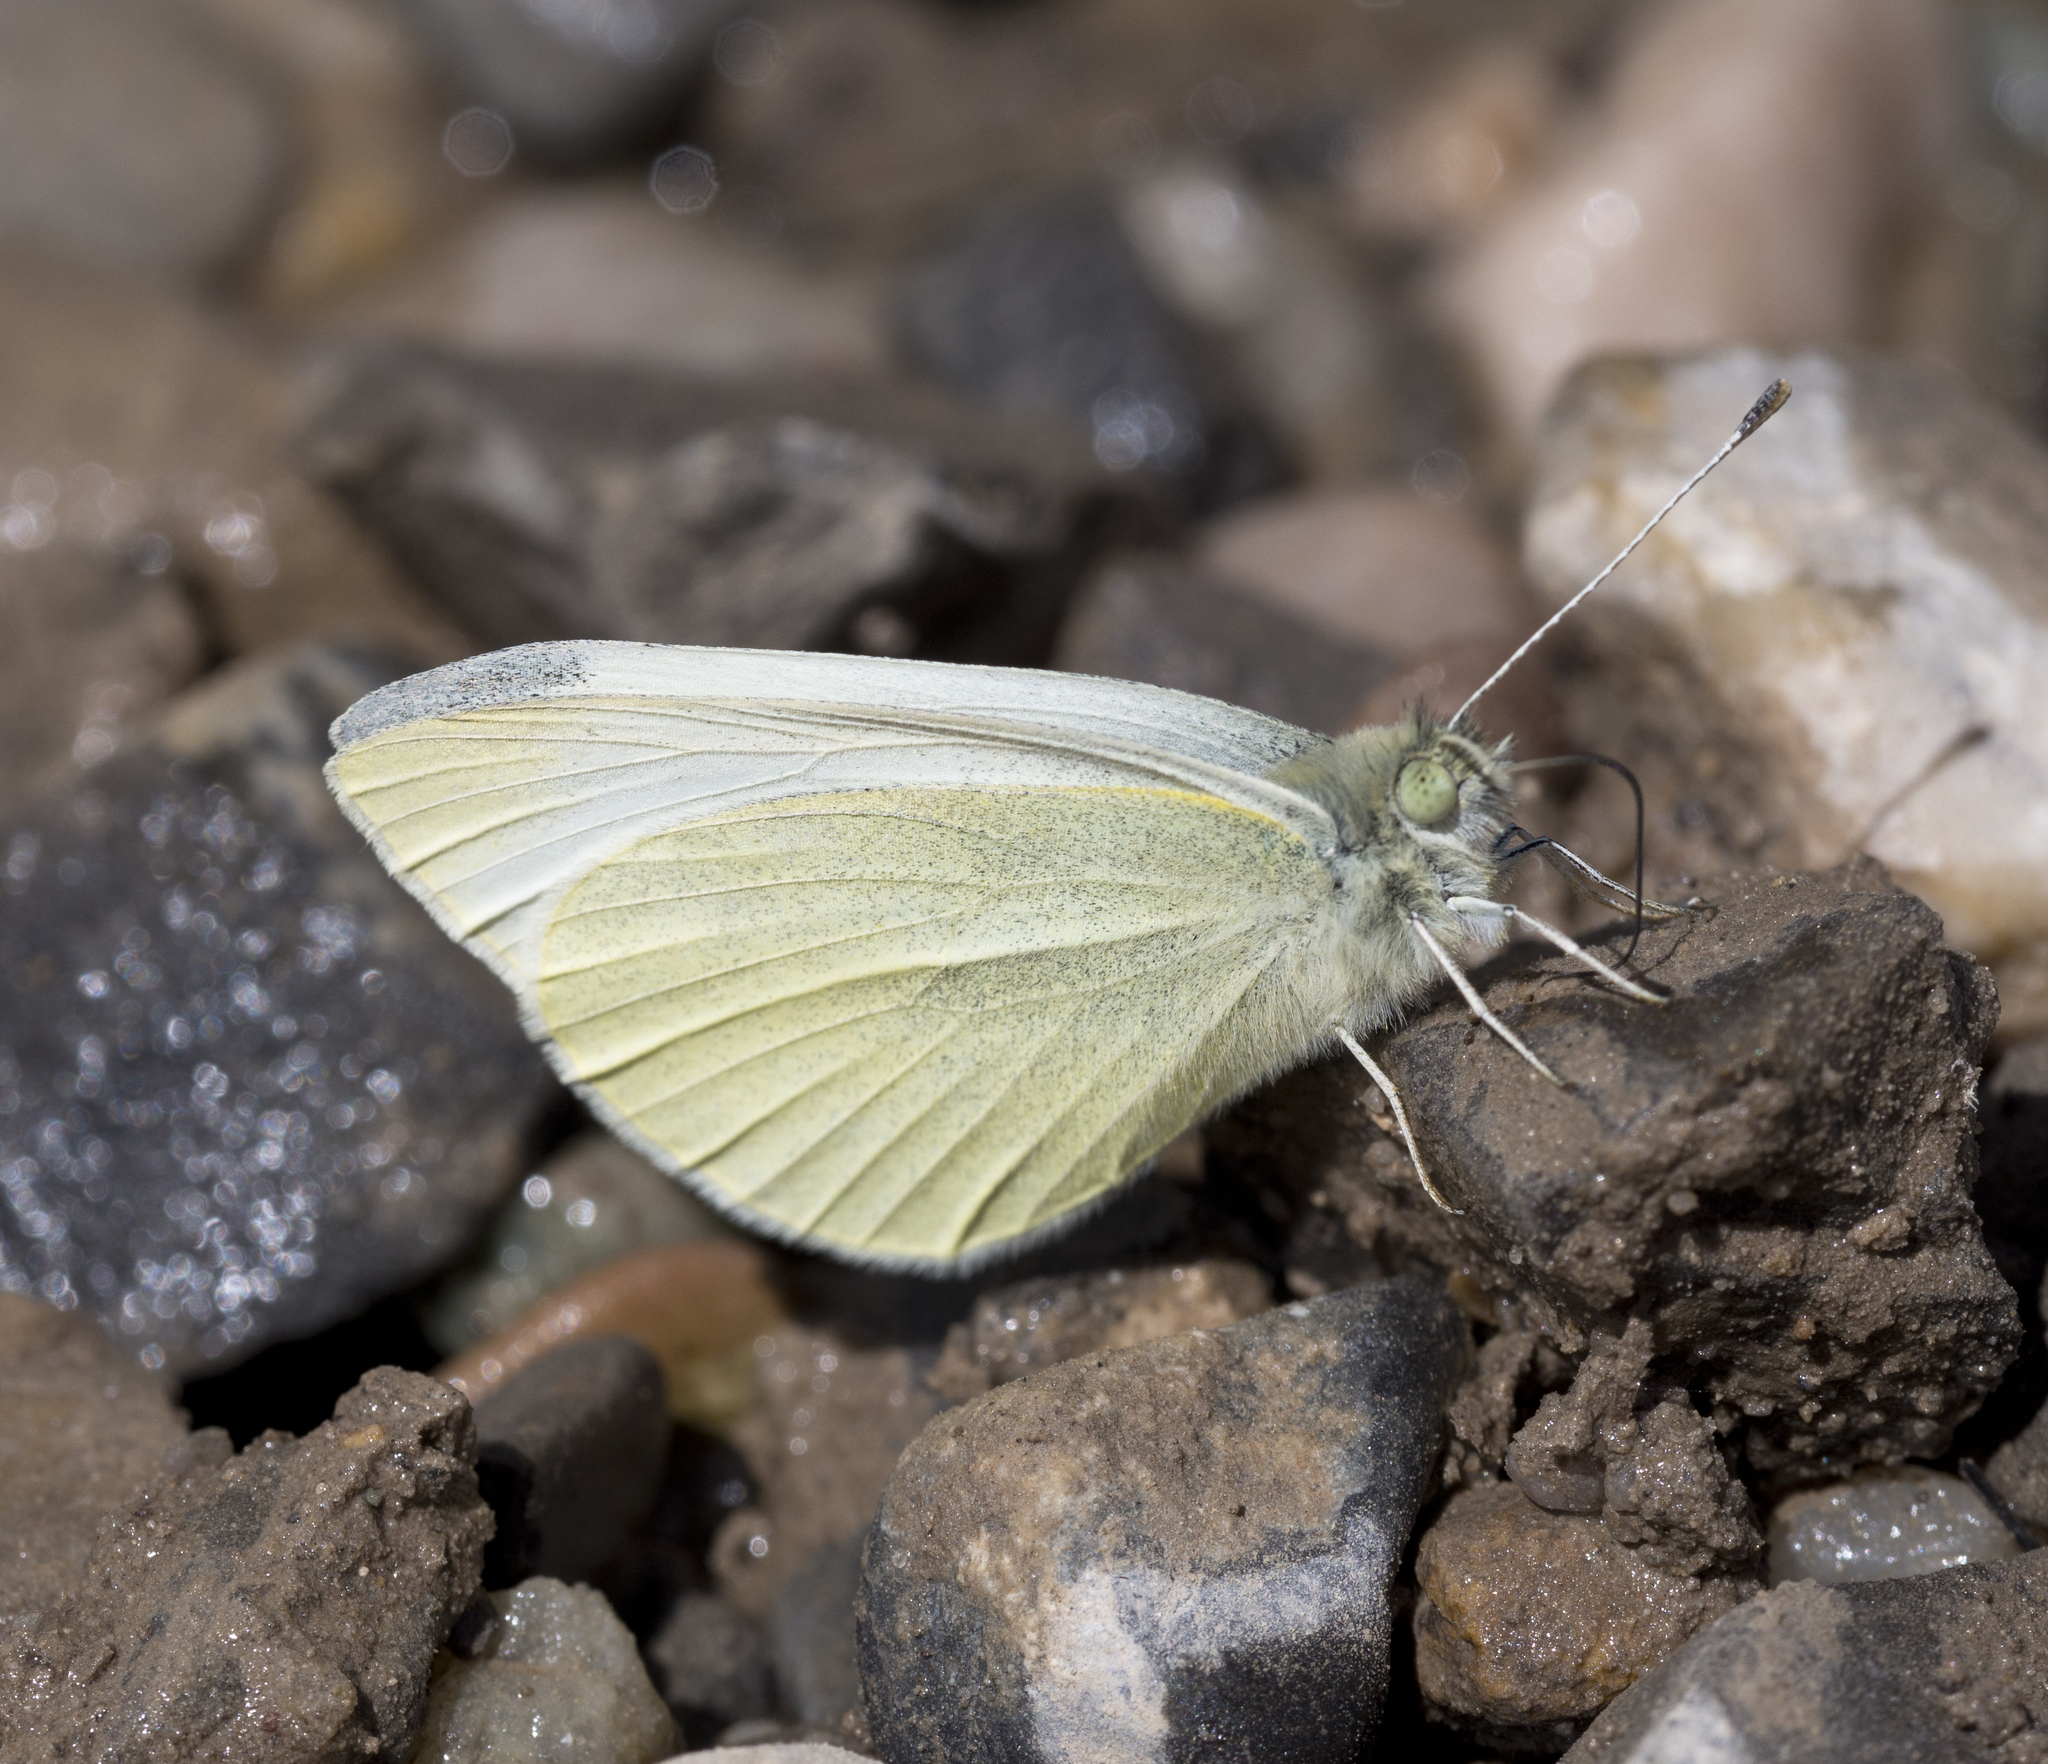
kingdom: Animalia
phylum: Arthropoda
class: Insecta
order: Lepidoptera
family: Pieridae
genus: Pieris
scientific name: Pieris rapae
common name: Small white
